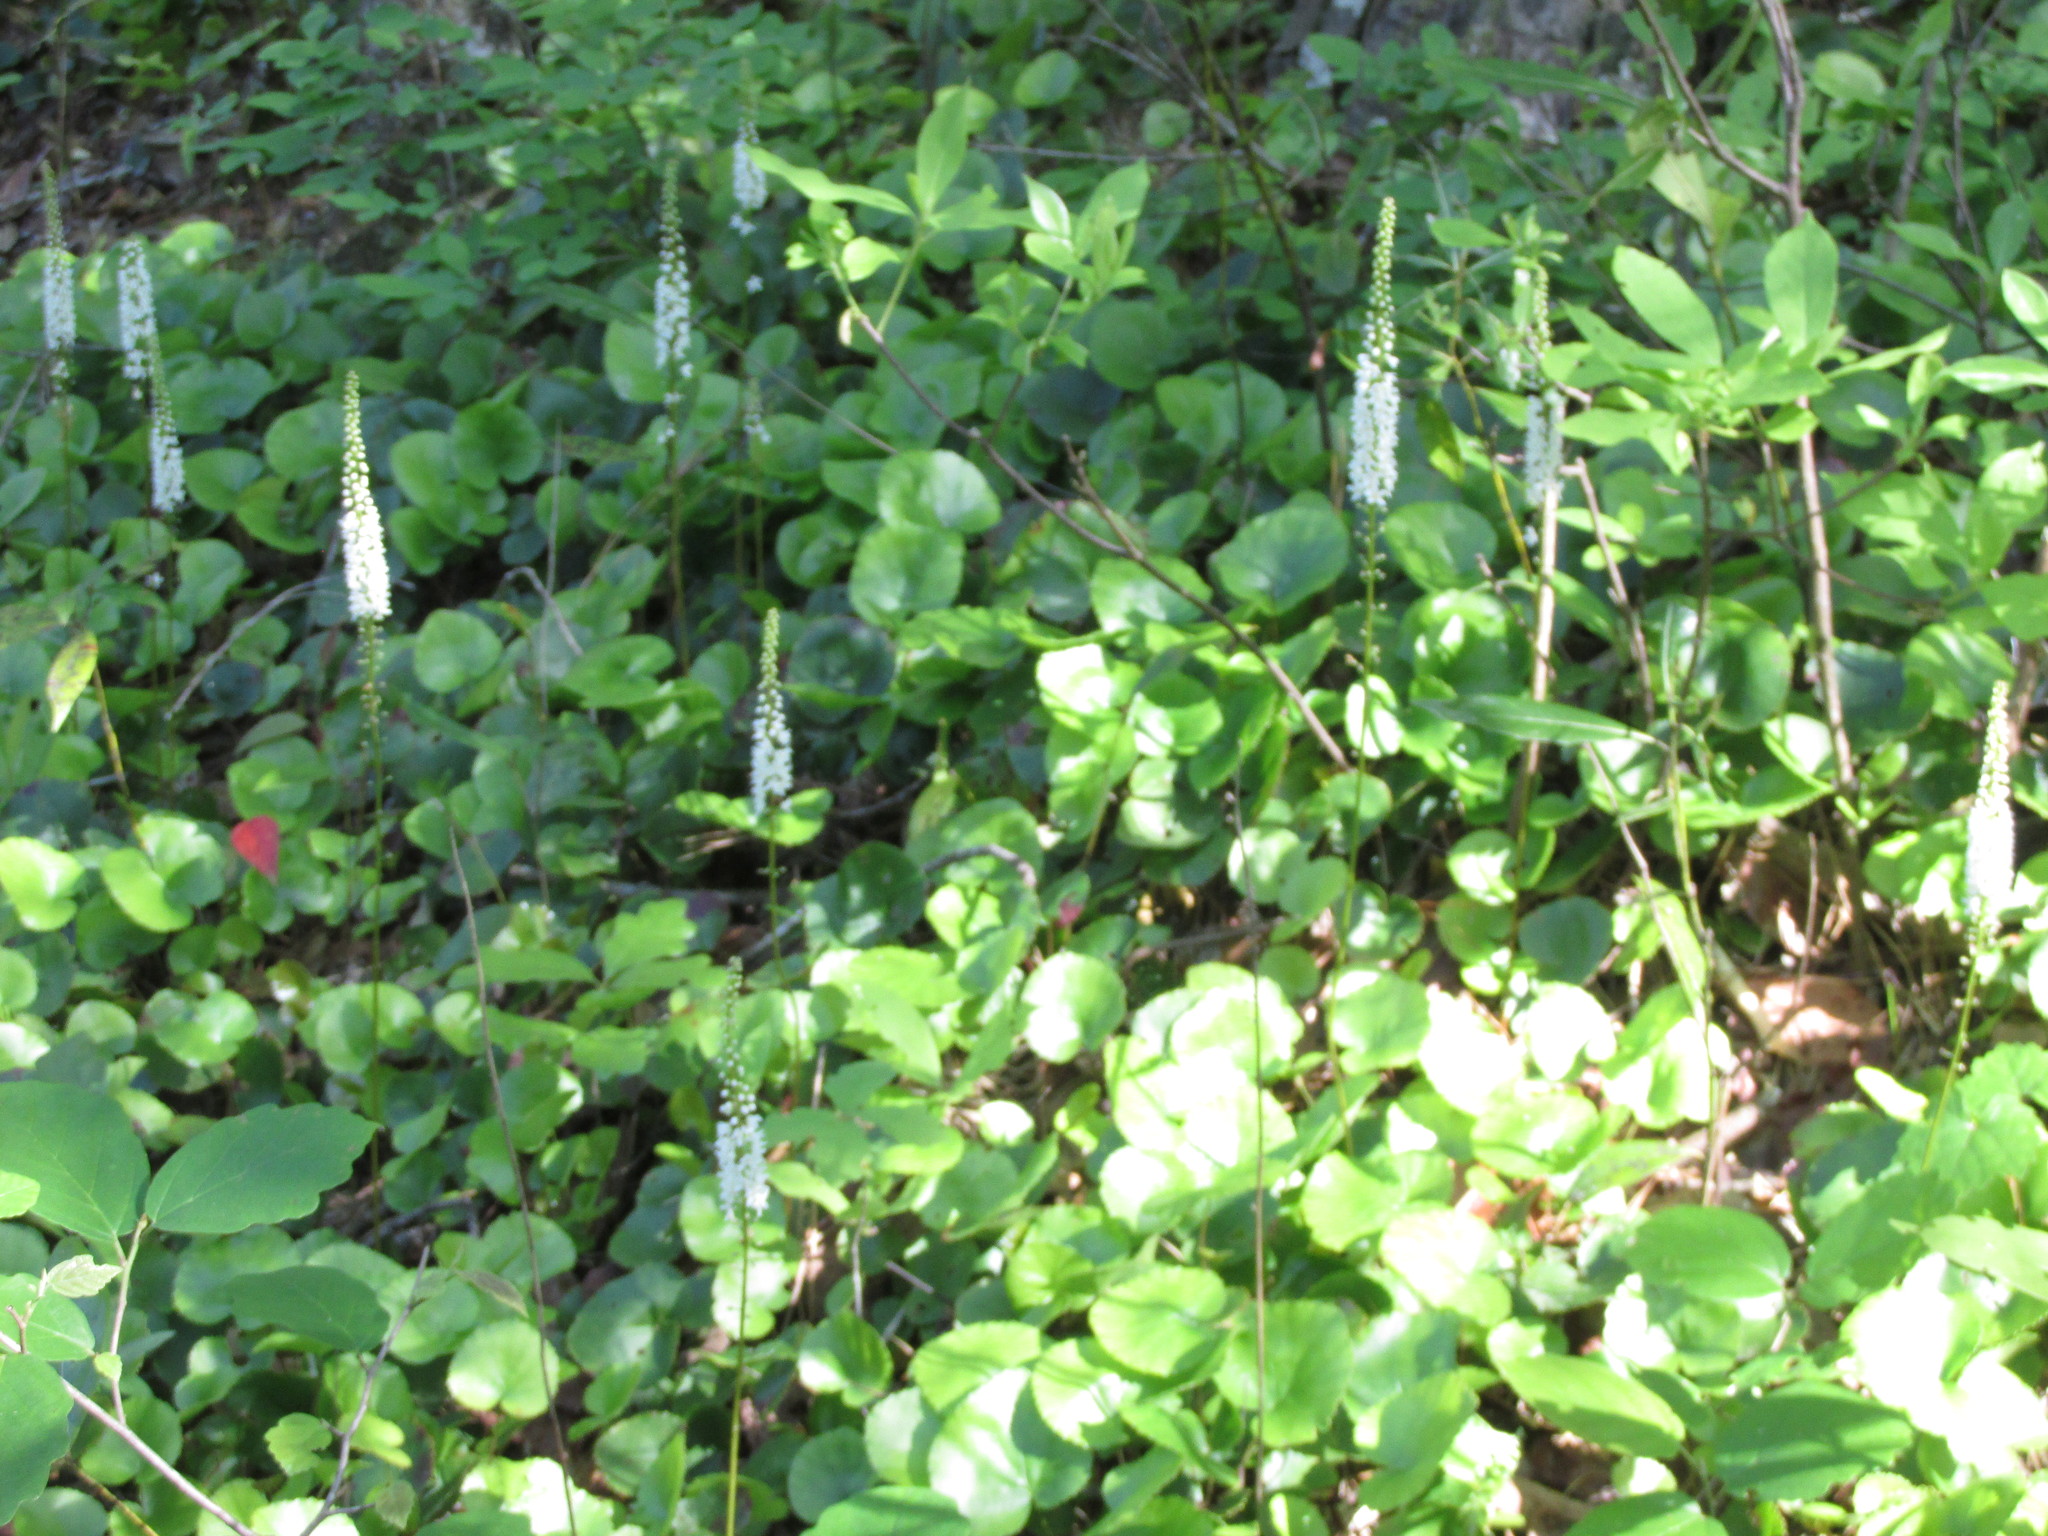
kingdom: Plantae
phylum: Tracheophyta
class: Magnoliopsida
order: Ericales
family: Diapensiaceae
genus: Galax
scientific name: Galax urceolata
